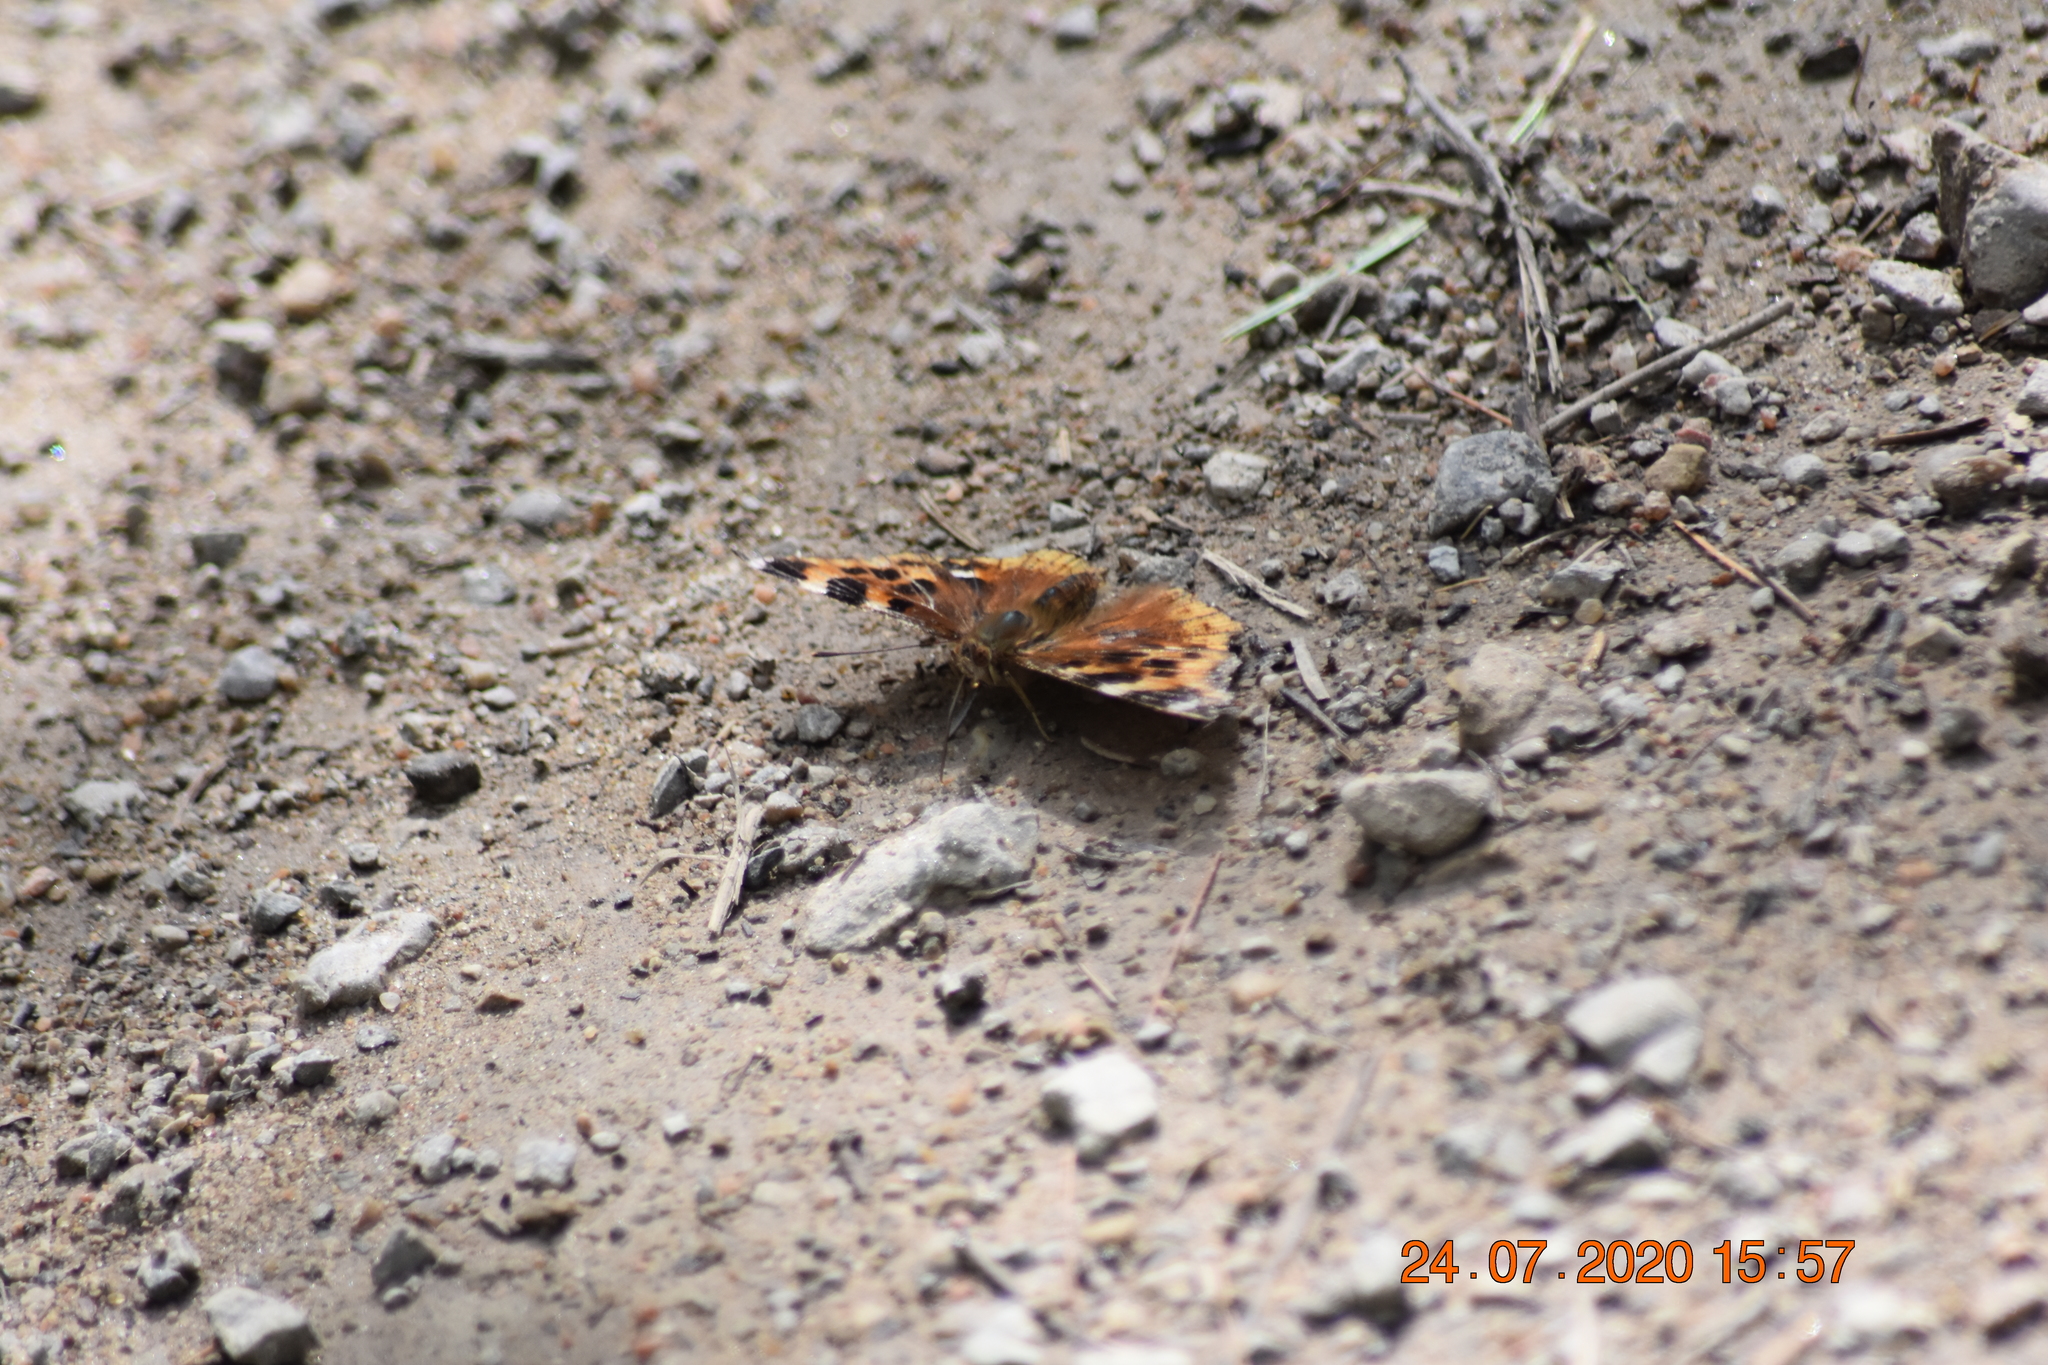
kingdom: Animalia
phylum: Arthropoda
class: Insecta
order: Lepidoptera
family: Nymphalidae
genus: Polygonia
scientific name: Polygonia vaualbum
